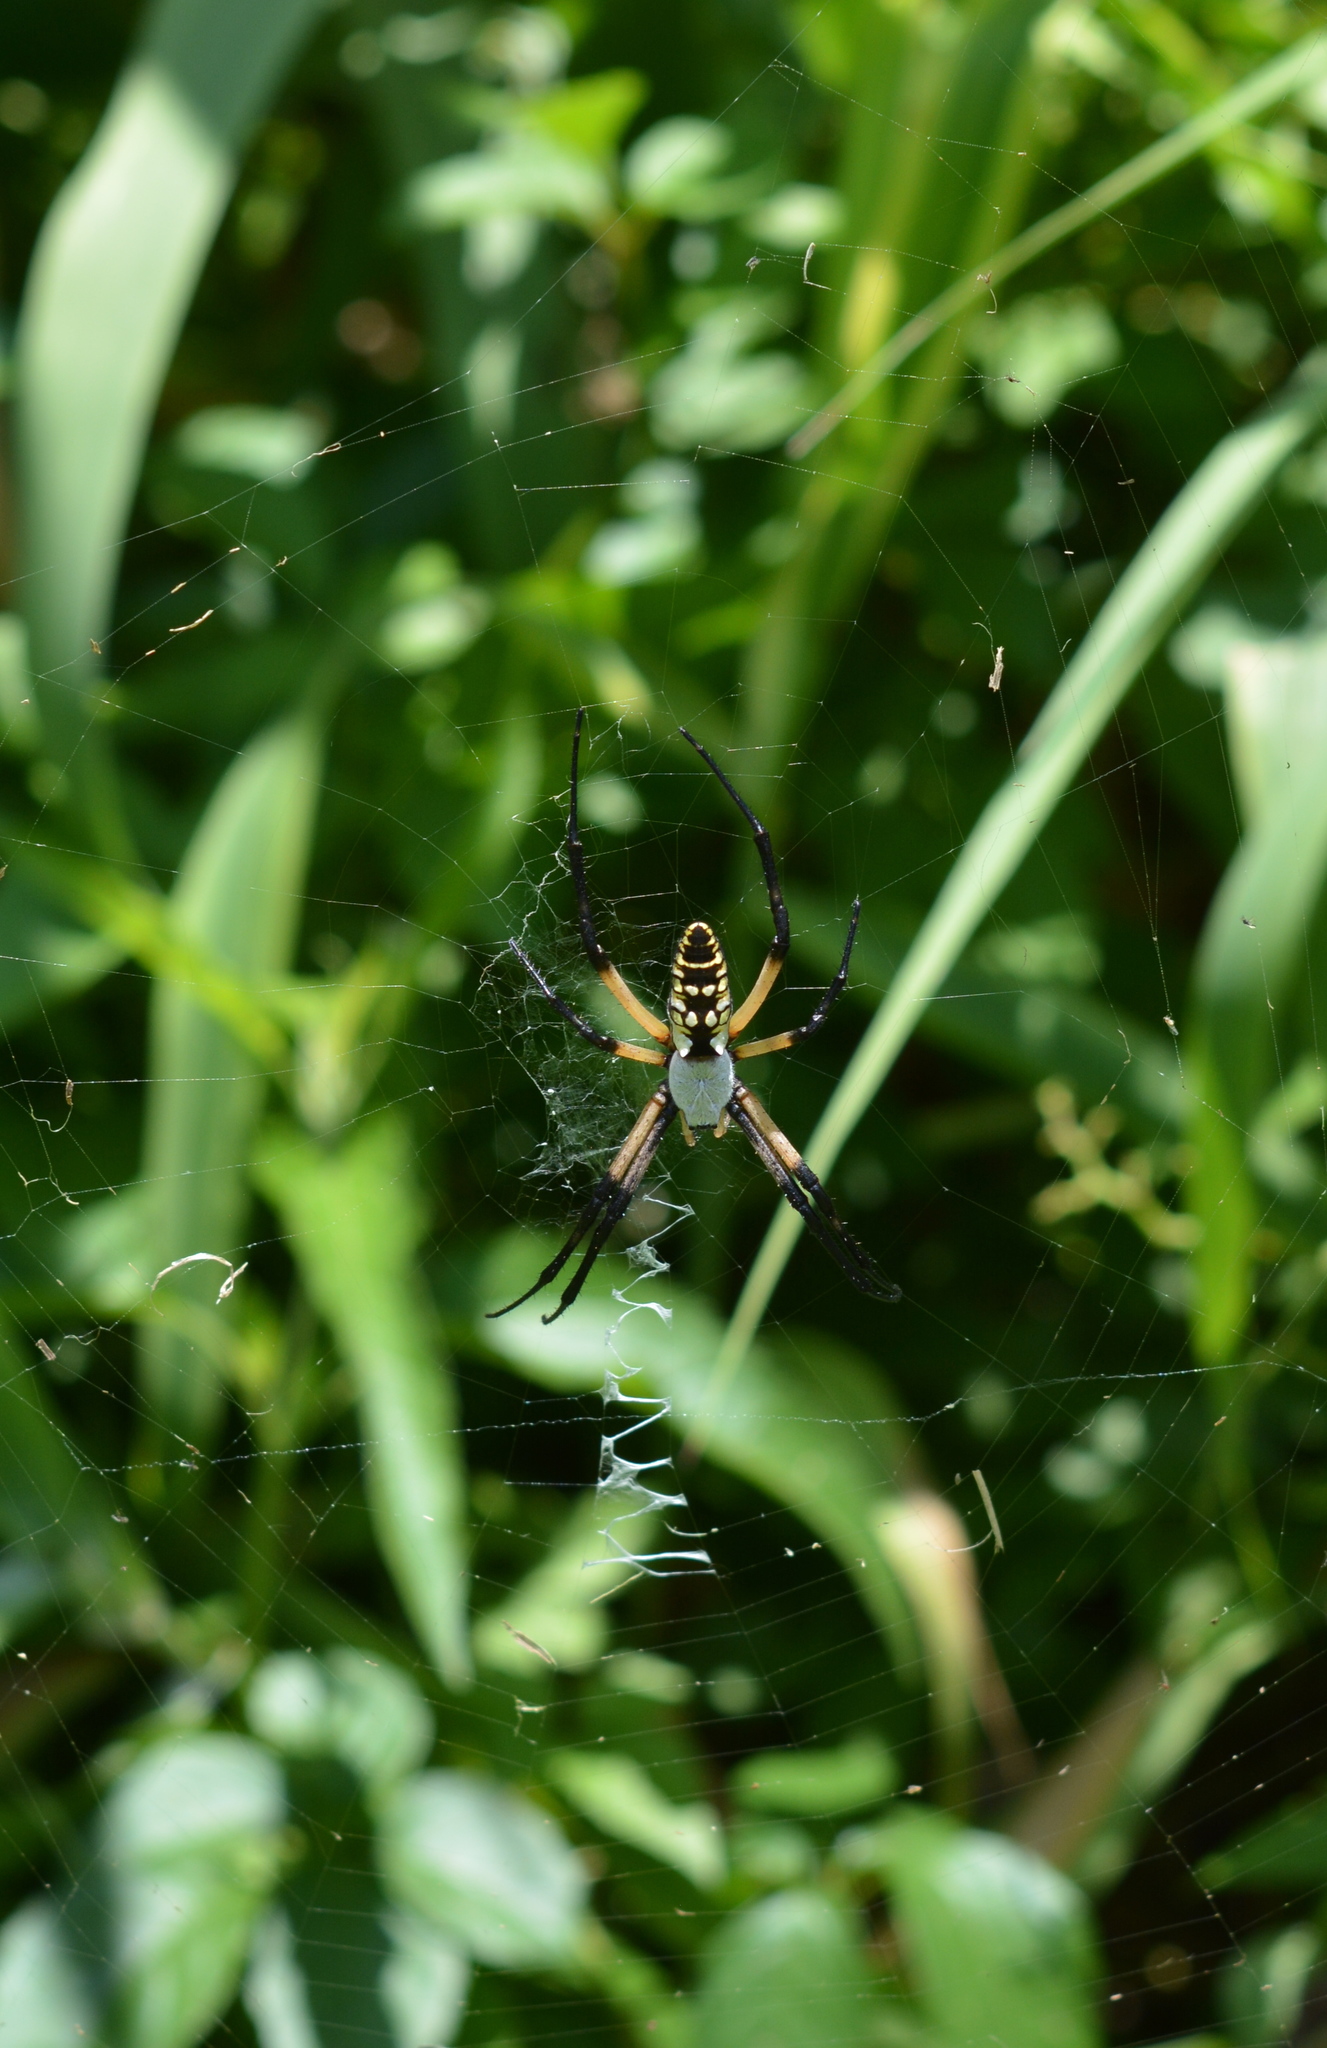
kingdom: Animalia
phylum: Arthropoda
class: Arachnida
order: Araneae
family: Araneidae
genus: Argiope
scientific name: Argiope aurantia
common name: Orb weavers
